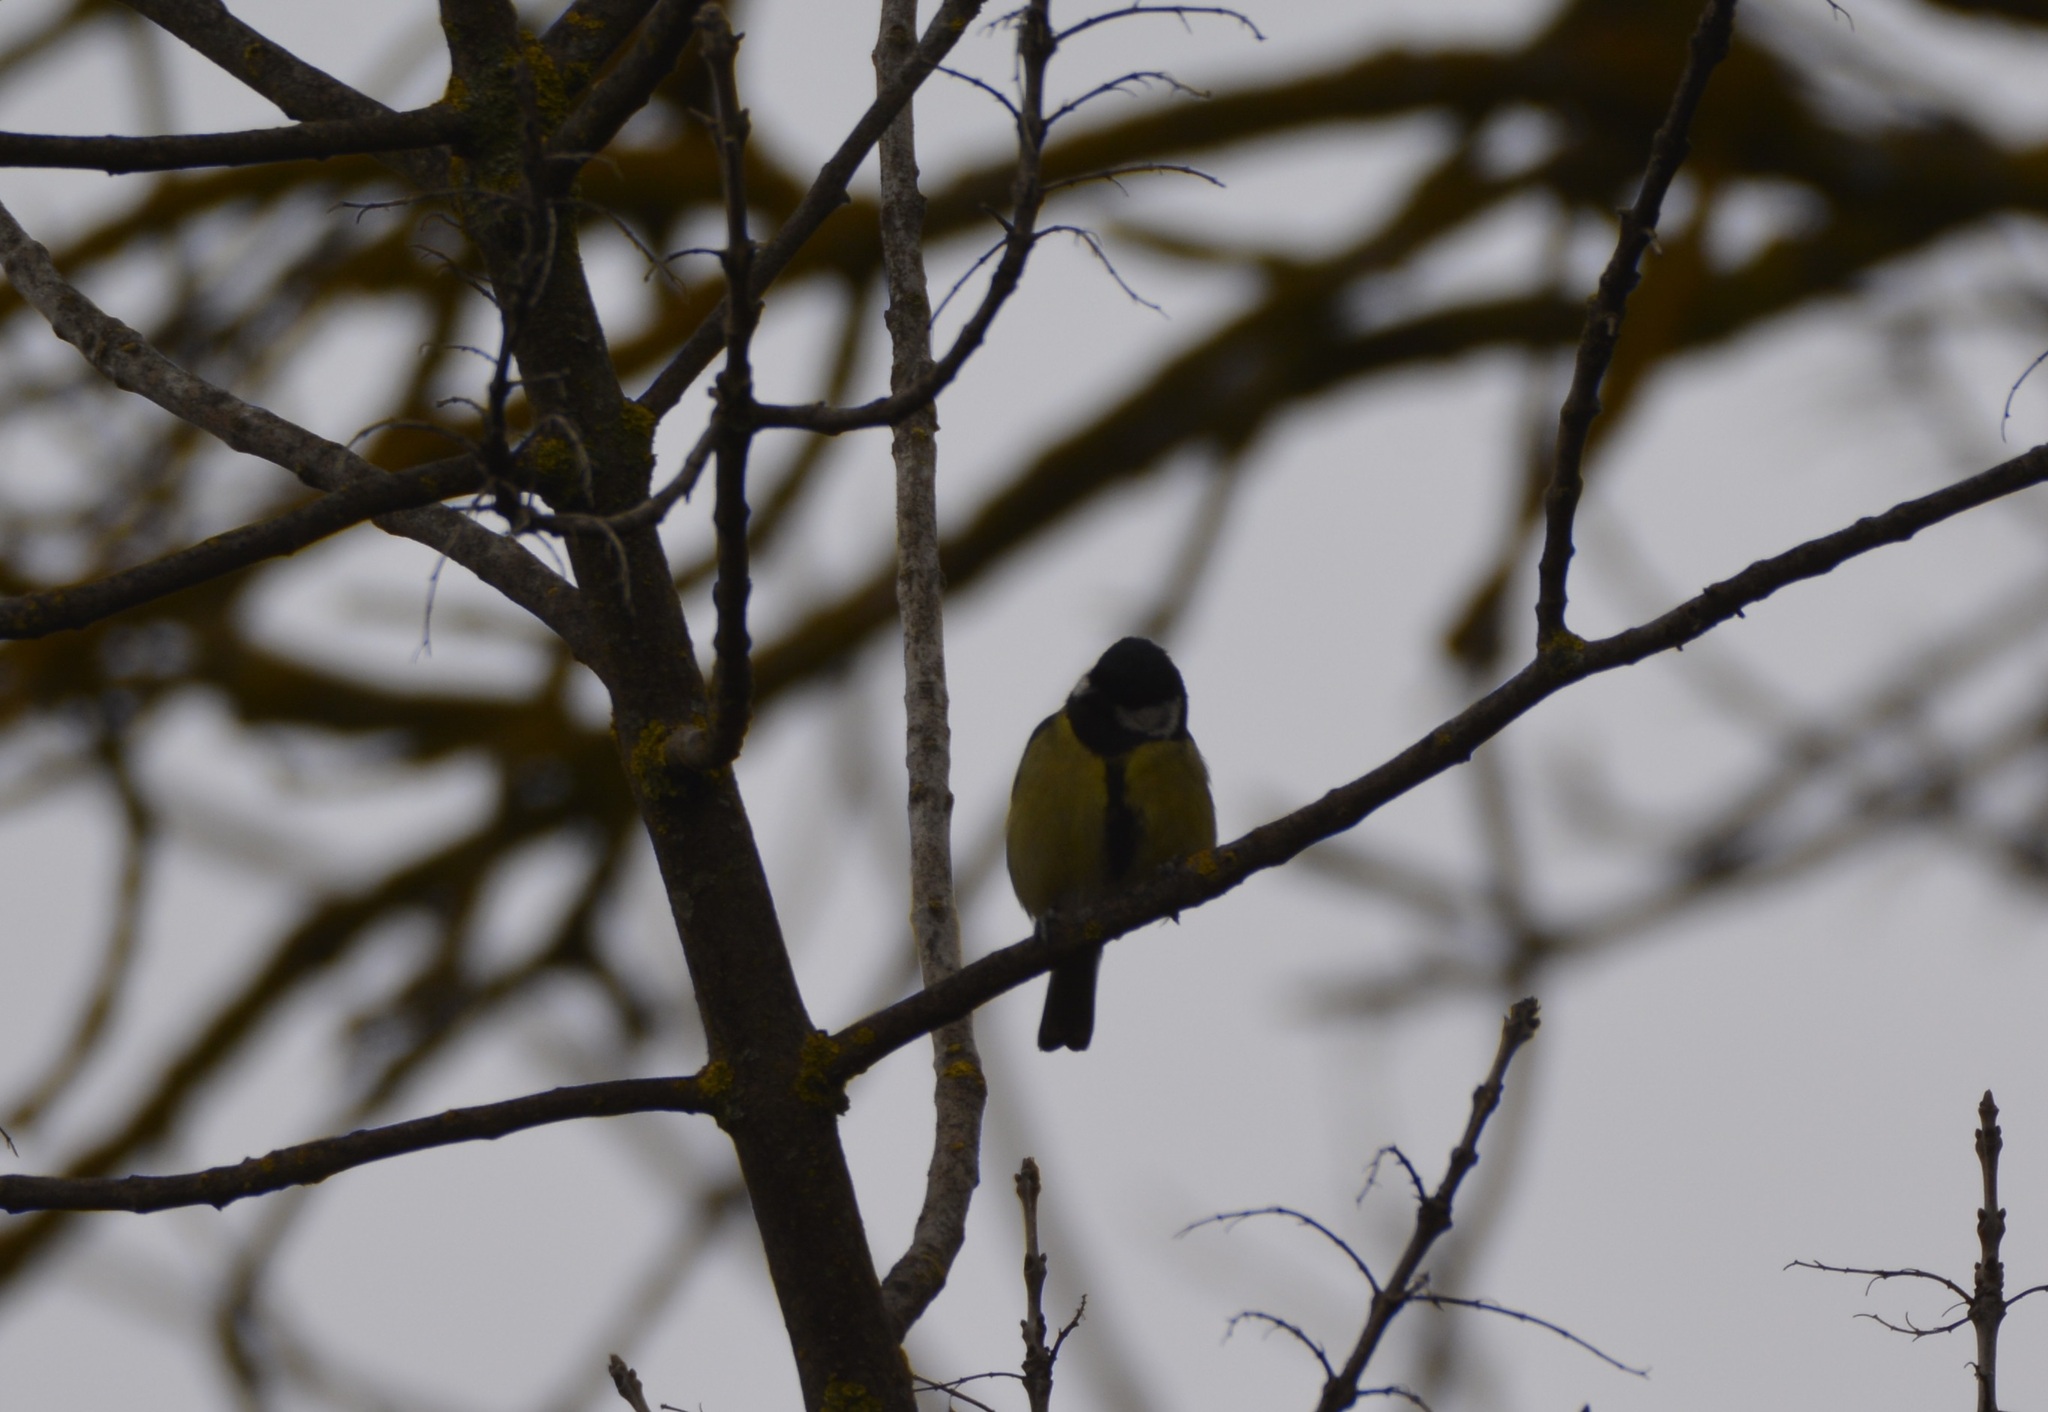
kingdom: Animalia
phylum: Chordata
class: Aves
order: Passeriformes
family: Paridae
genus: Parus
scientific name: Parus major
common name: Great tit
